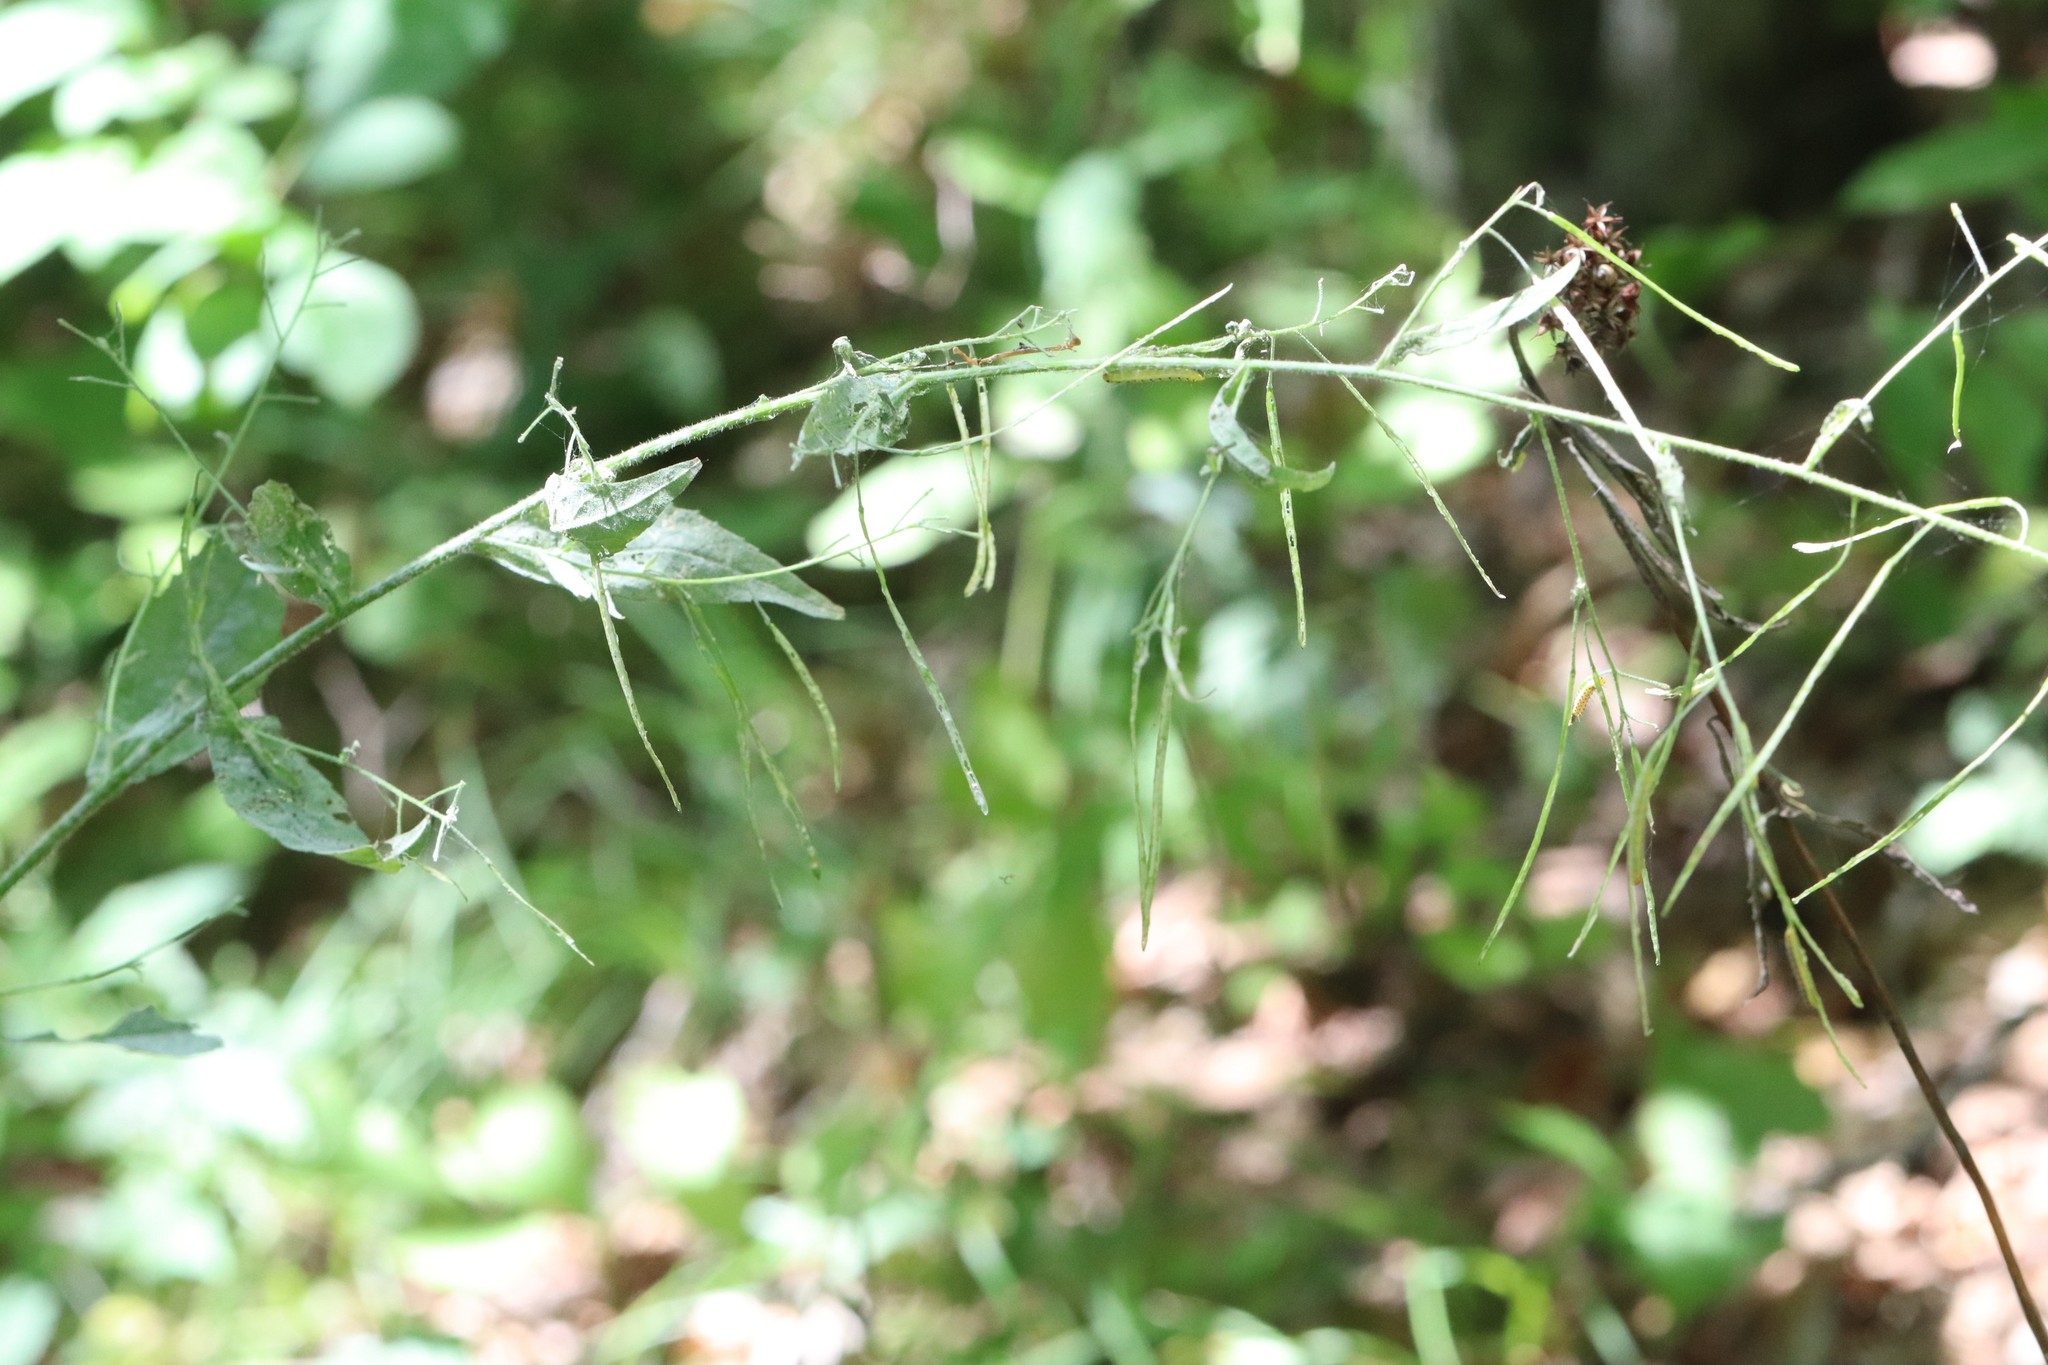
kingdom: Plantae
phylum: Tracheophyta
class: Magnoliopsida
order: Brassicales
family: Brassicaceae
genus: Catolobus
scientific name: Catolobus pendulus
